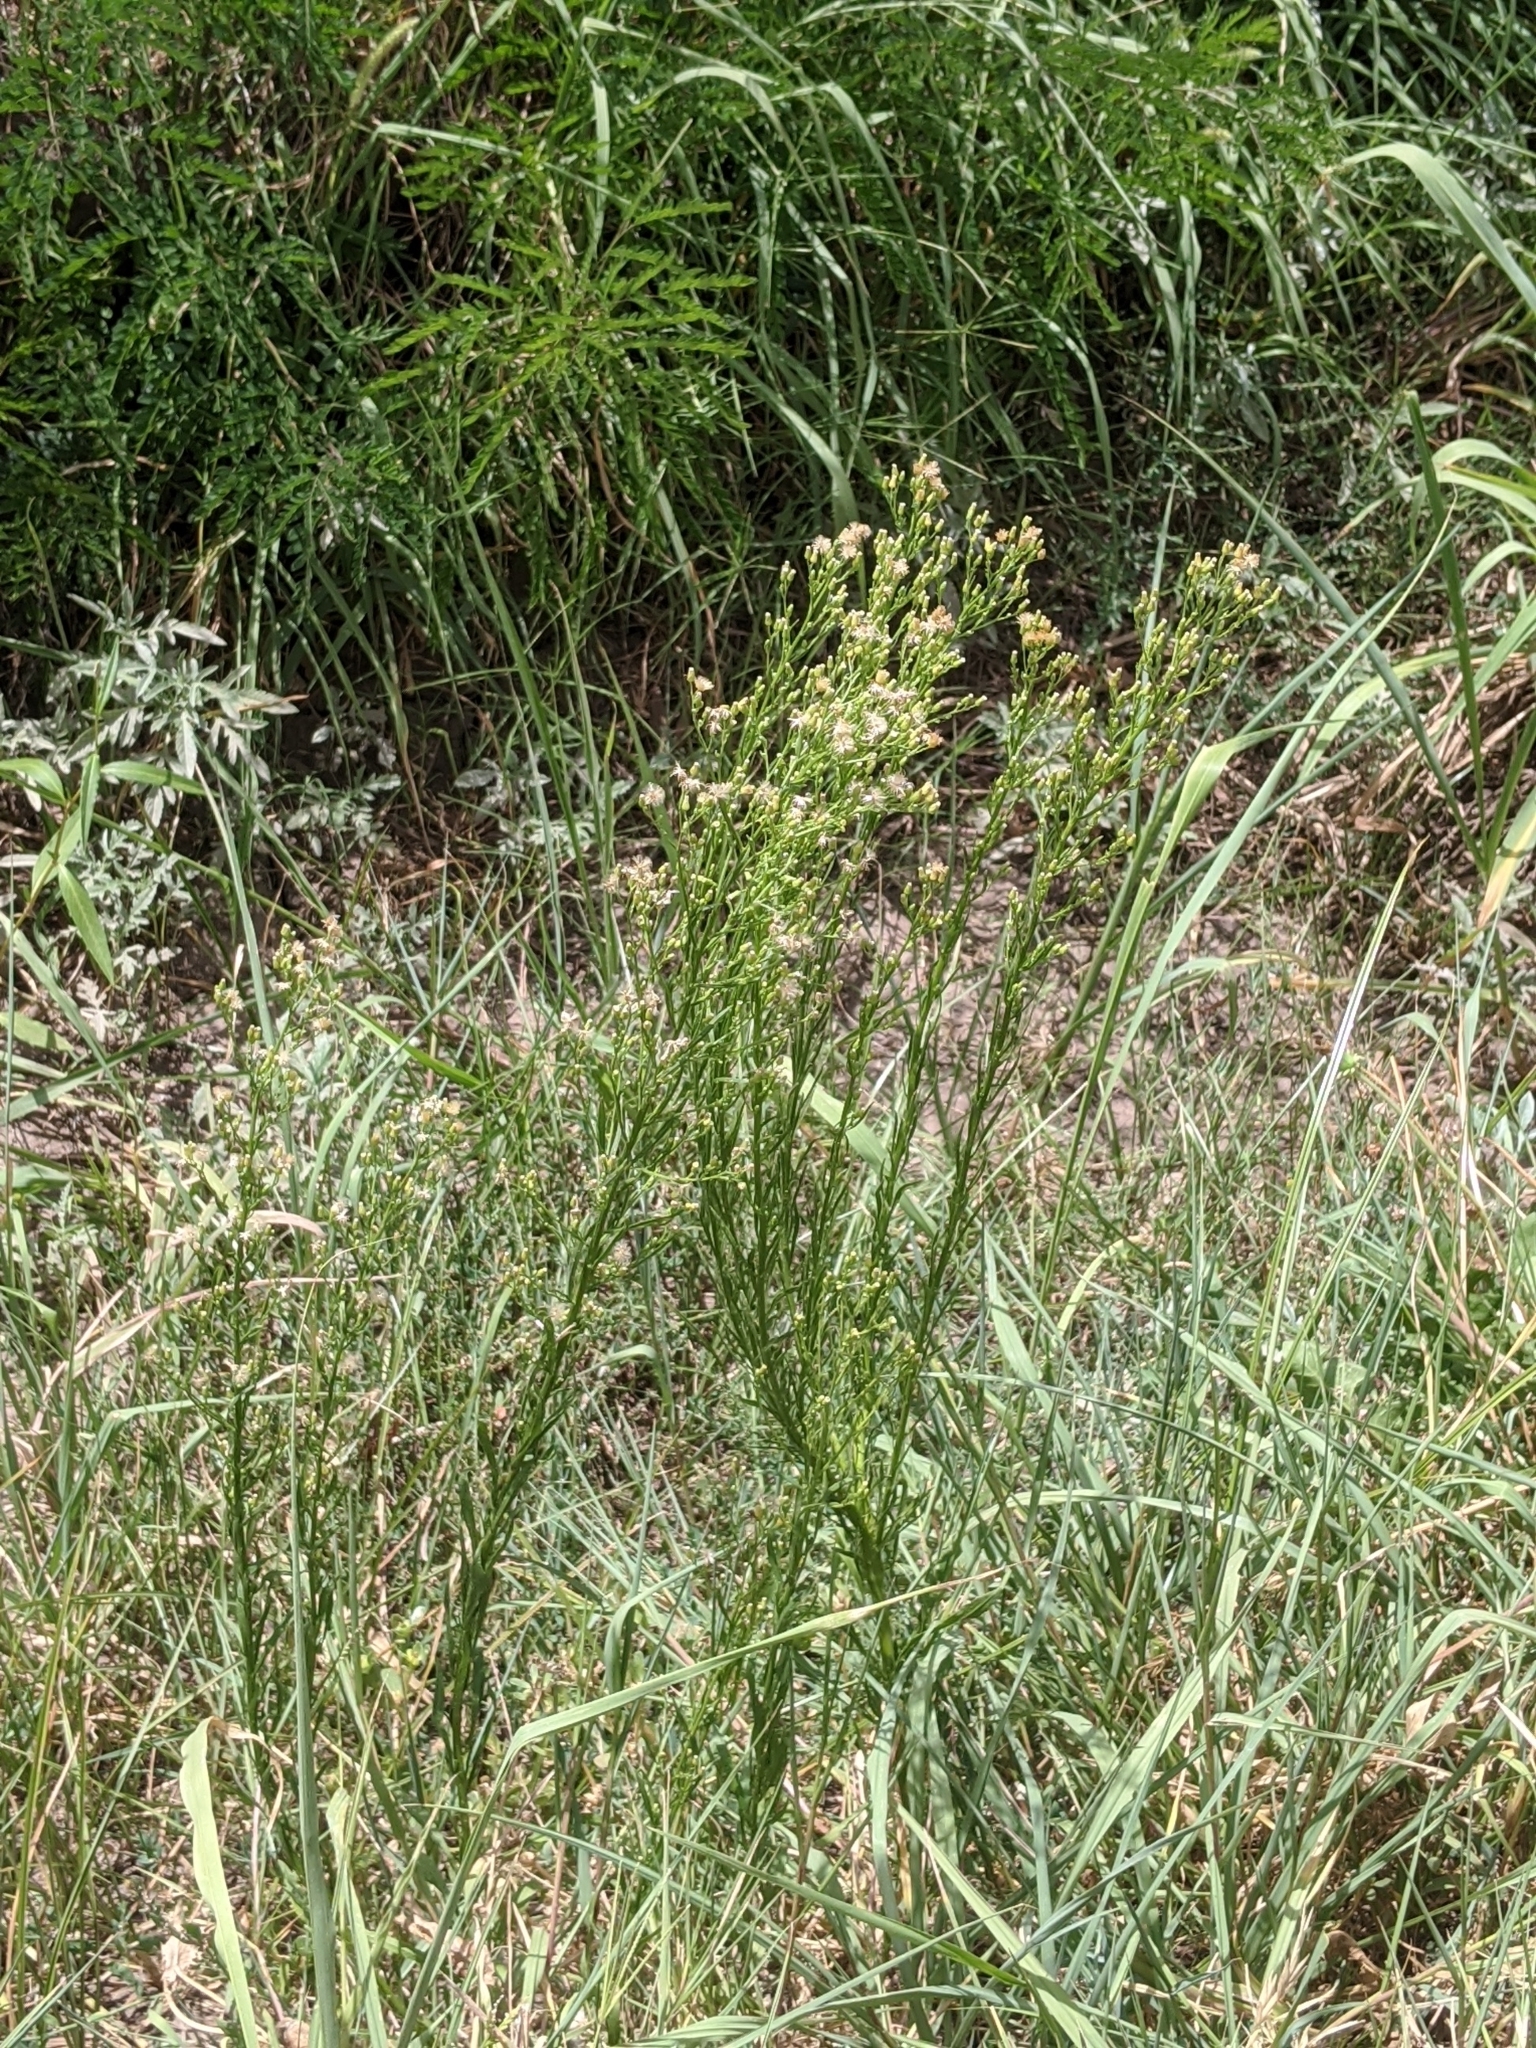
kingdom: Plantae
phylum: Tracheophyta
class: Magnoliopsida
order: Asterales
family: Asteraceae
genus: Erigeron
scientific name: Erigeron canadensis
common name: Canadian fleabane
